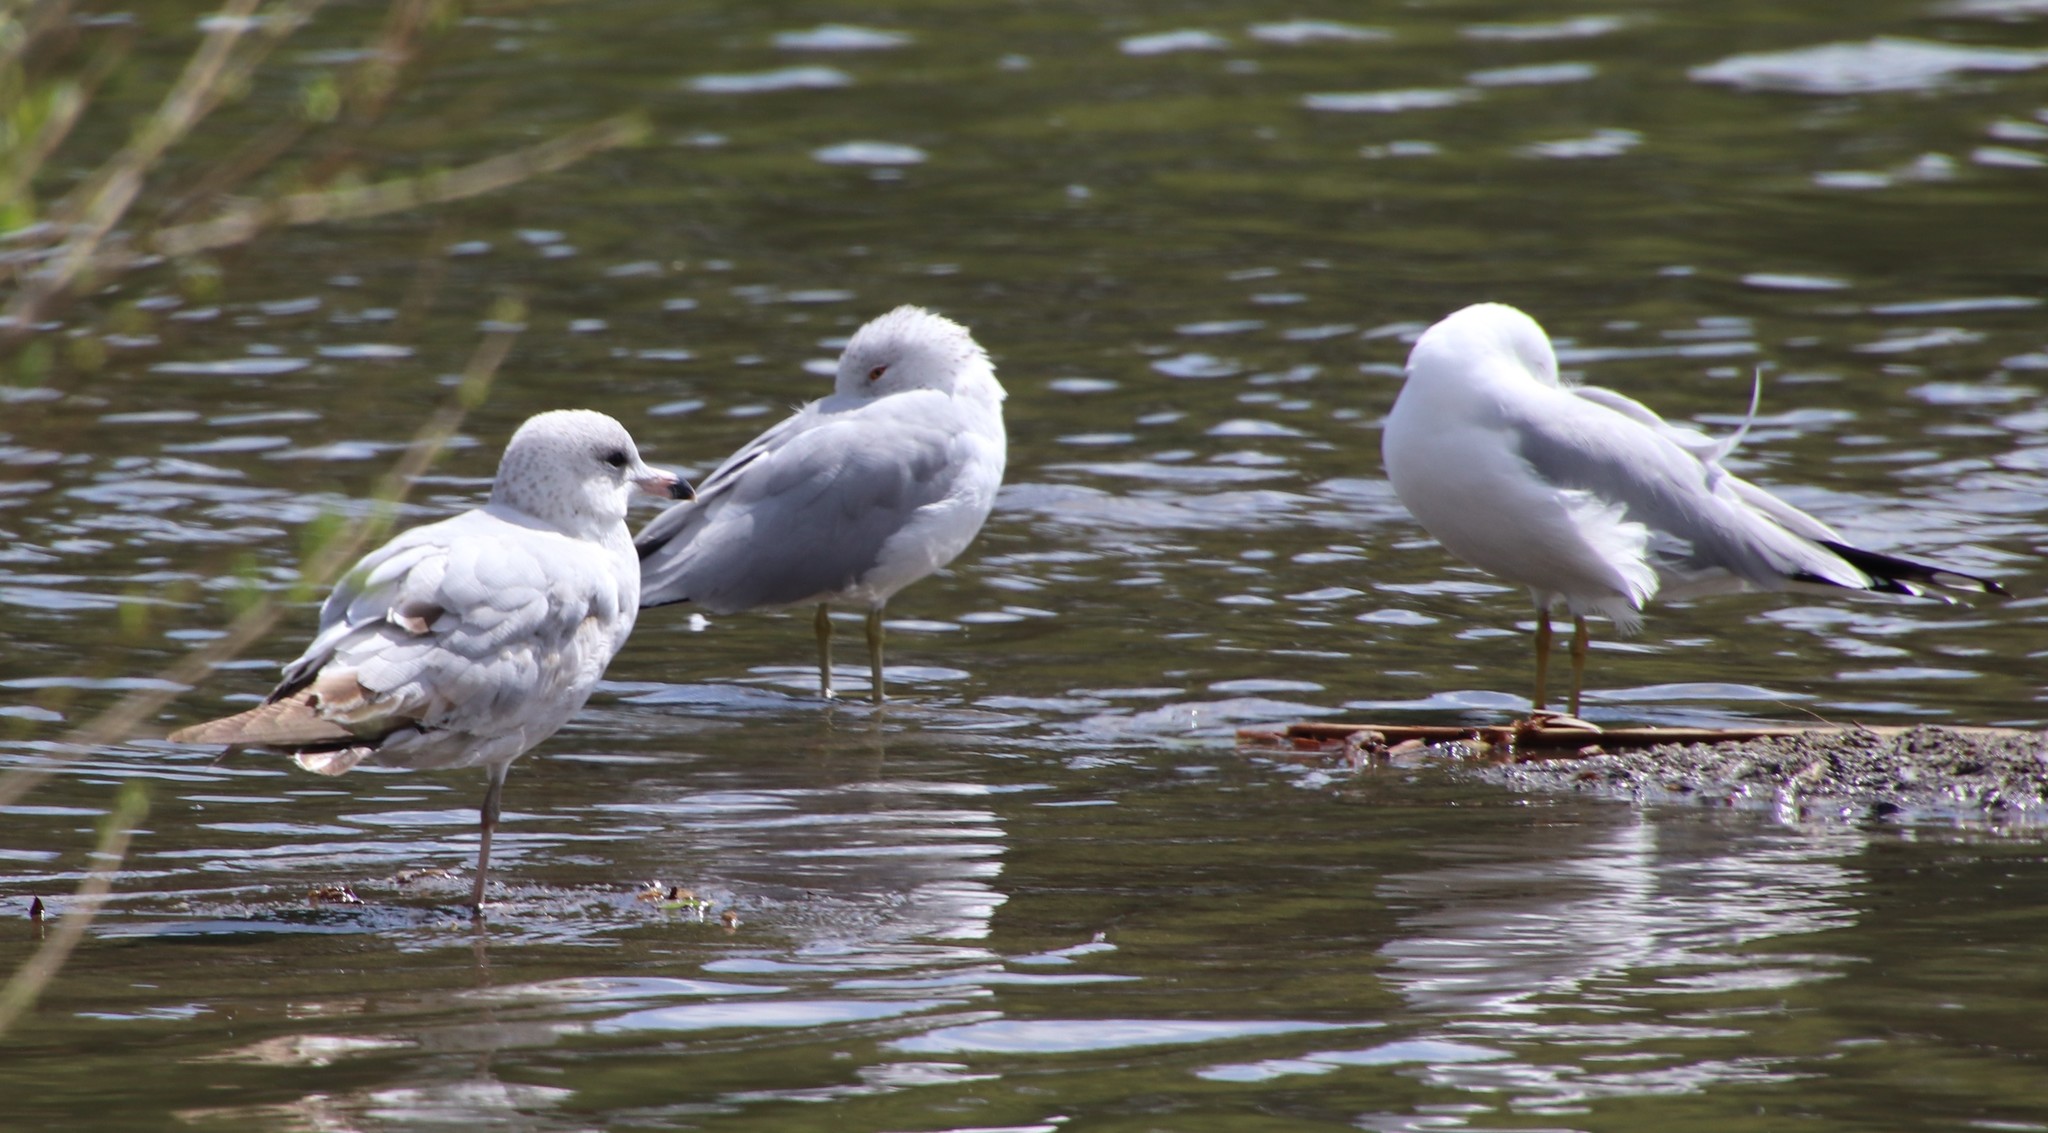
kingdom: Animalia
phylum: Chordata
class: Aves
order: Charadriiformes
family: Laridae
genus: Larus
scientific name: Larus delawarensis
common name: Ring-billed gull
